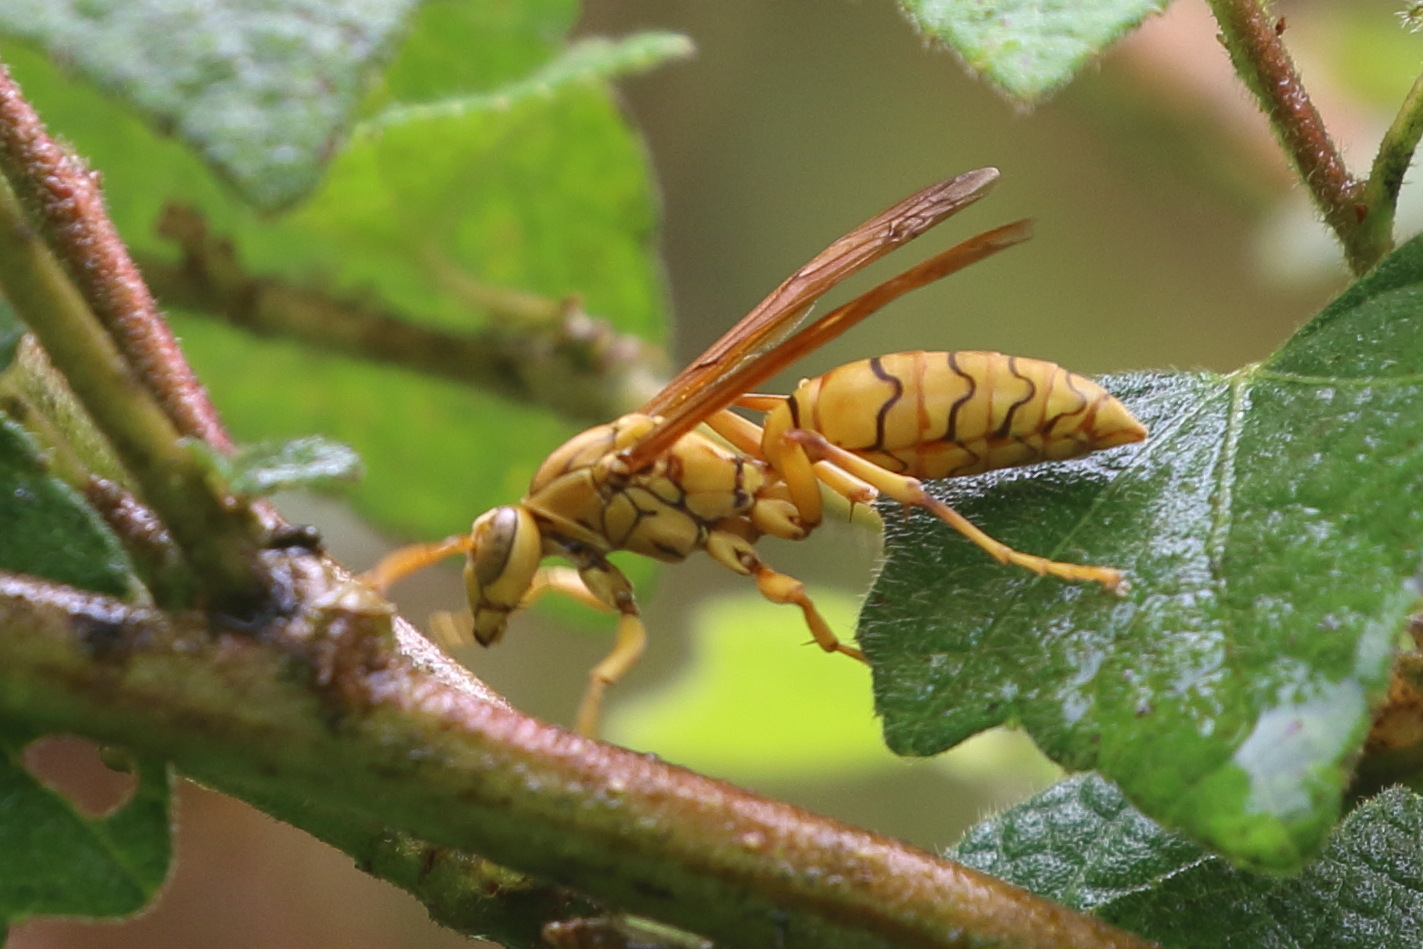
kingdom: Animalia
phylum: Arthropoda
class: Insecta
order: Hymenoptera
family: Eumenidae
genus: Polistes
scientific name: Polistes olivaceus
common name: Paper wasp
